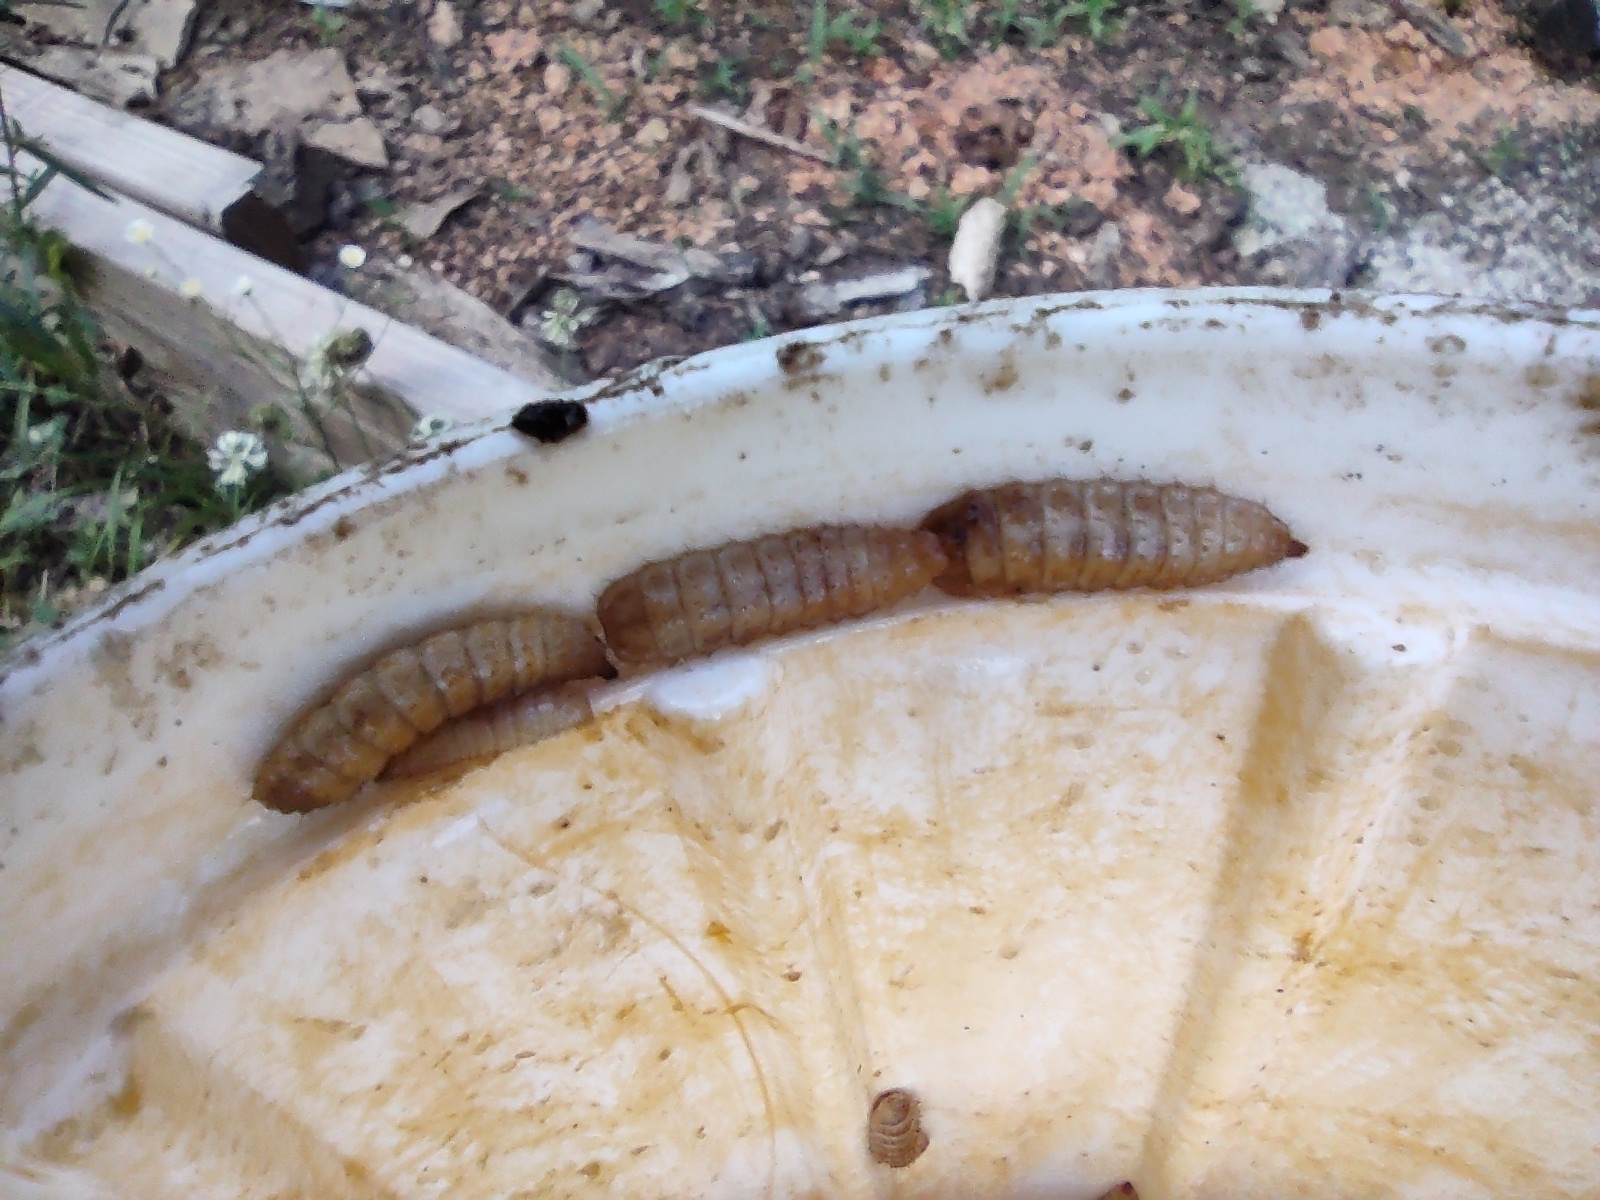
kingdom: Animalia
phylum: Arthropoda
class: Insecta
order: Diptera
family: Stratiomyidae
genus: Hermetia
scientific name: Hermetia illucens
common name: Black soldier fly
